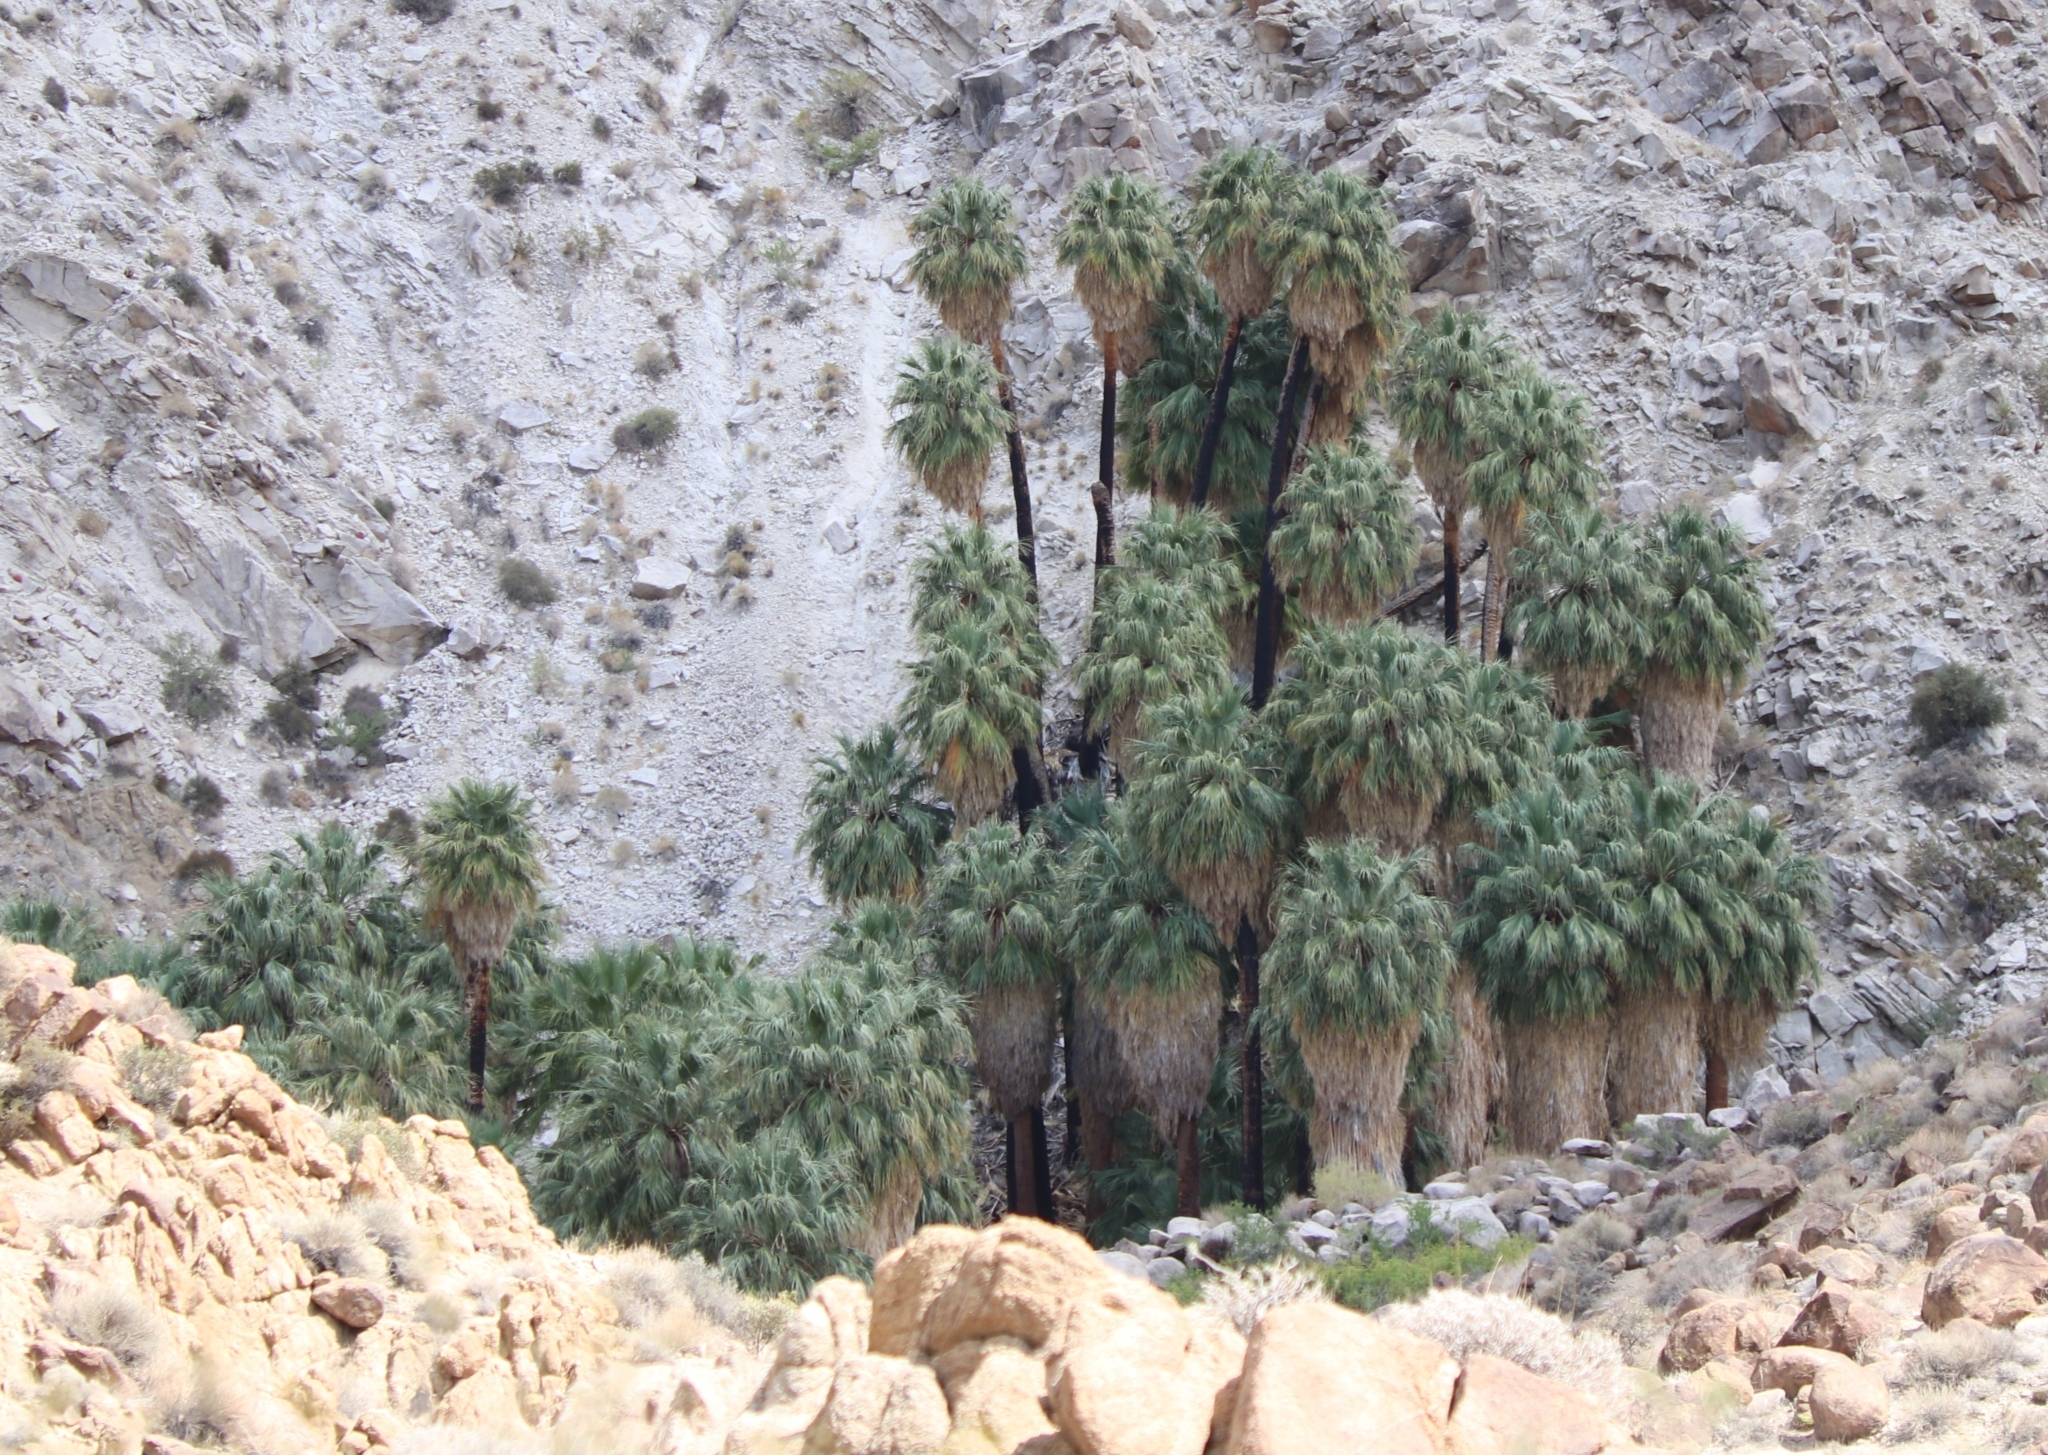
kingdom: Plantae
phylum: Tracheophyta
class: Liliopsida
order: Arecales
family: Arecaceae
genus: Washingtonia
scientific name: Washingtonia filifera
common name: California fan palm
